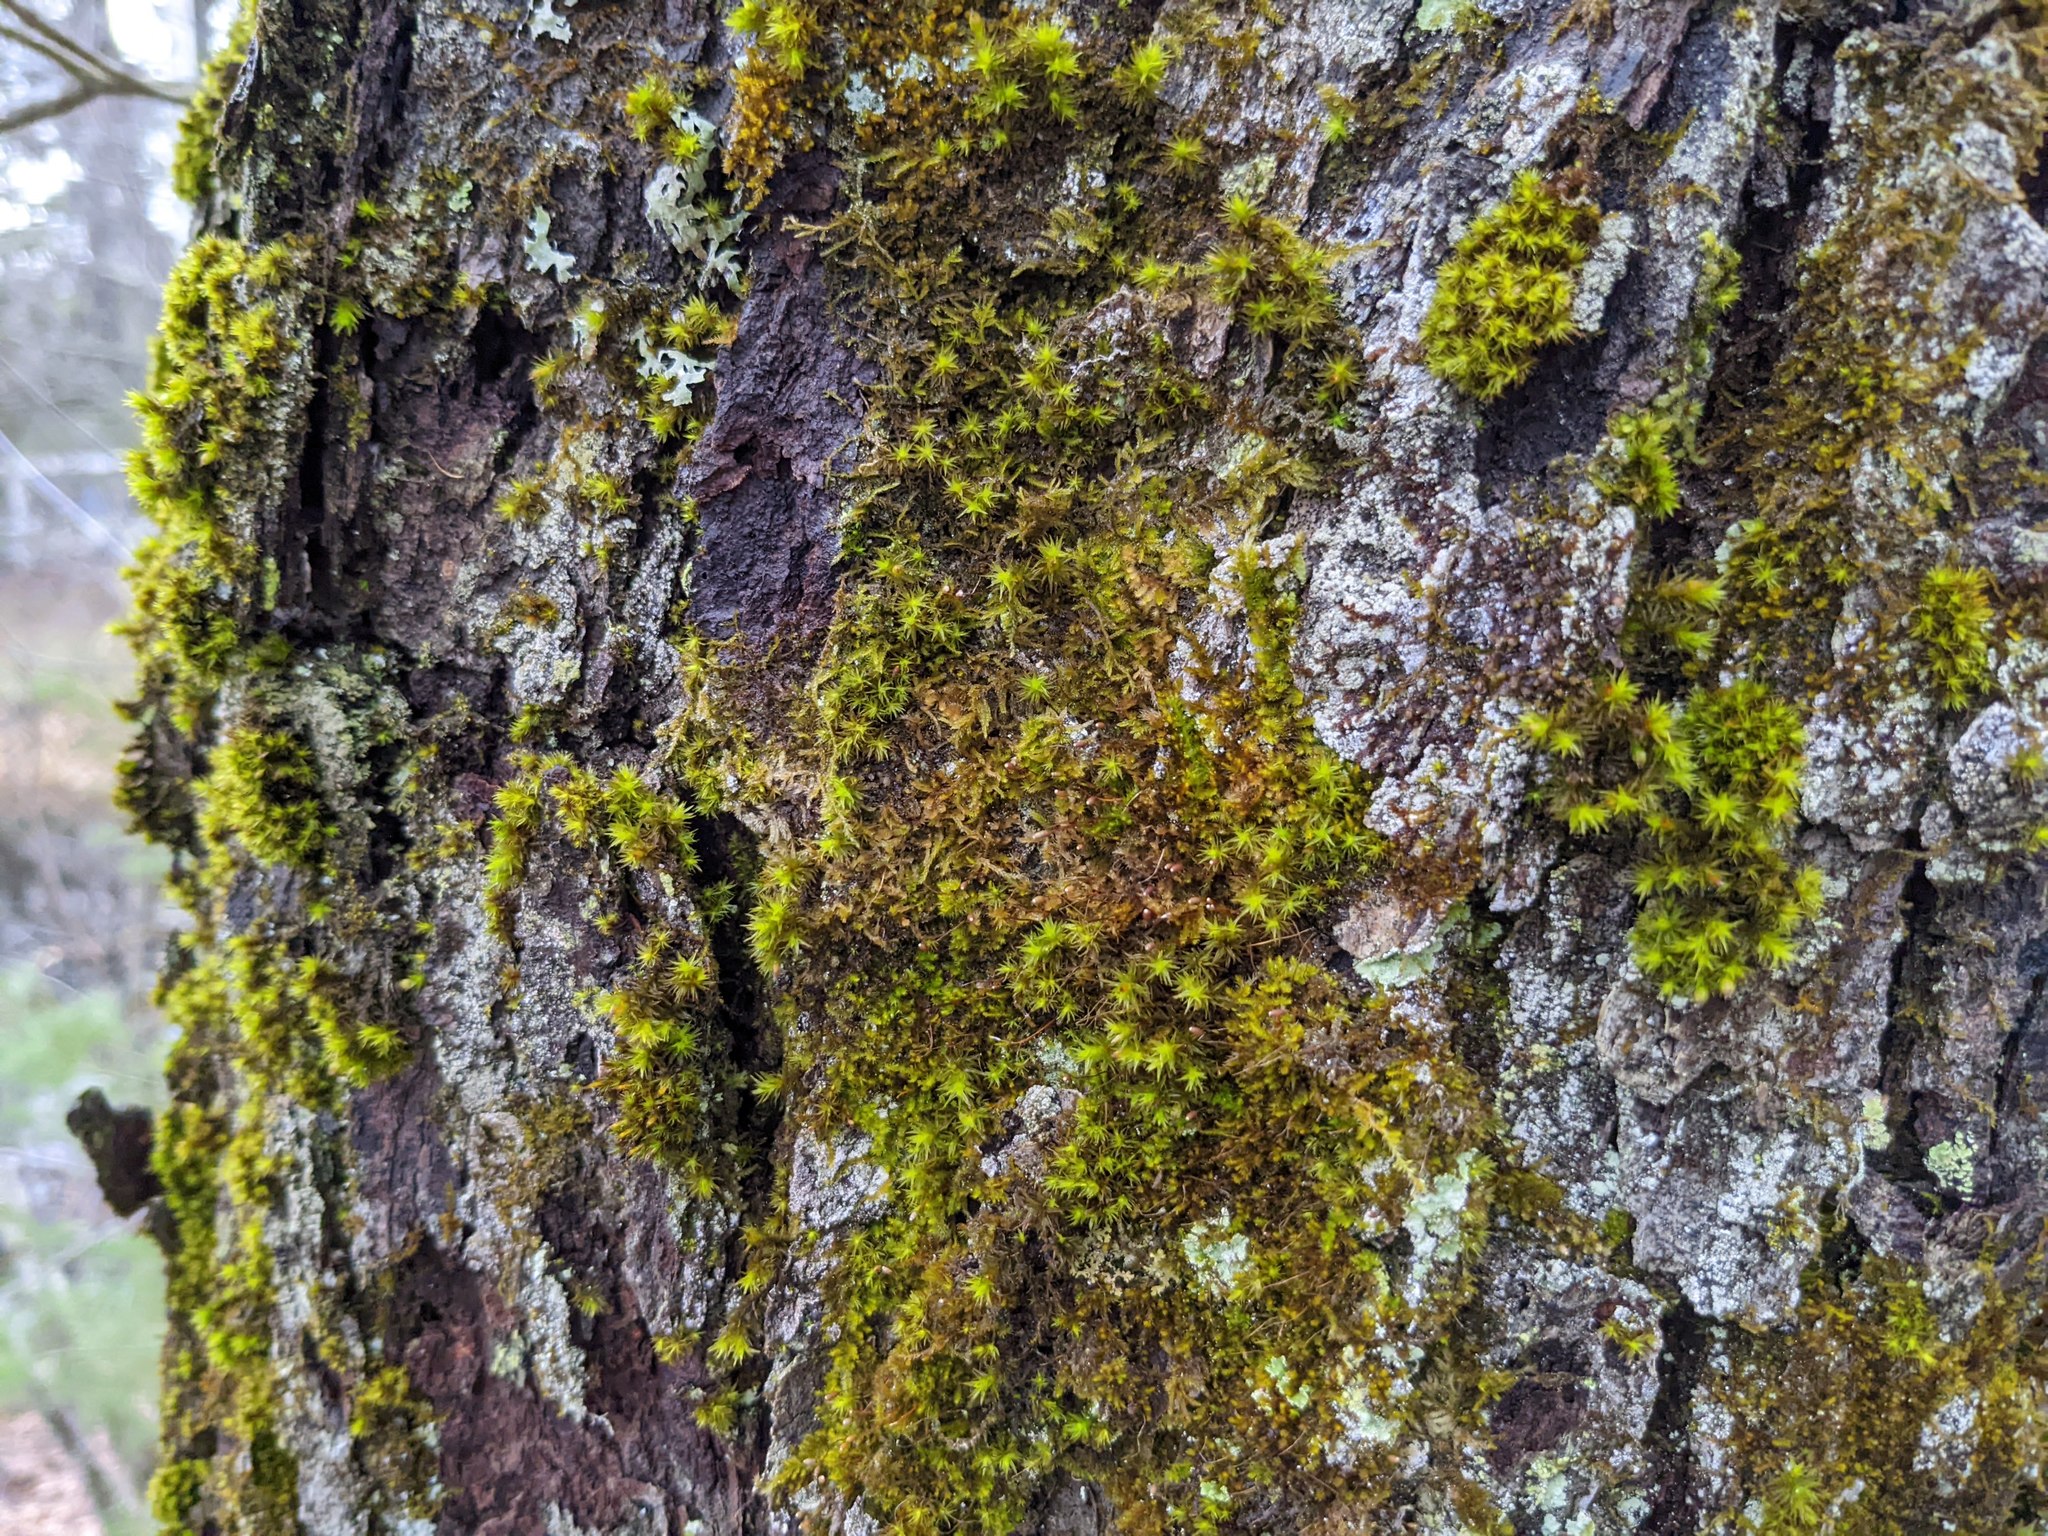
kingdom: Plantae
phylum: Bryophyta
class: Bryopsida
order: Orthotrichales
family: Orthotrichaceae
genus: Ulota
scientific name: Ulota crispa
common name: Crisped pincushion moss
